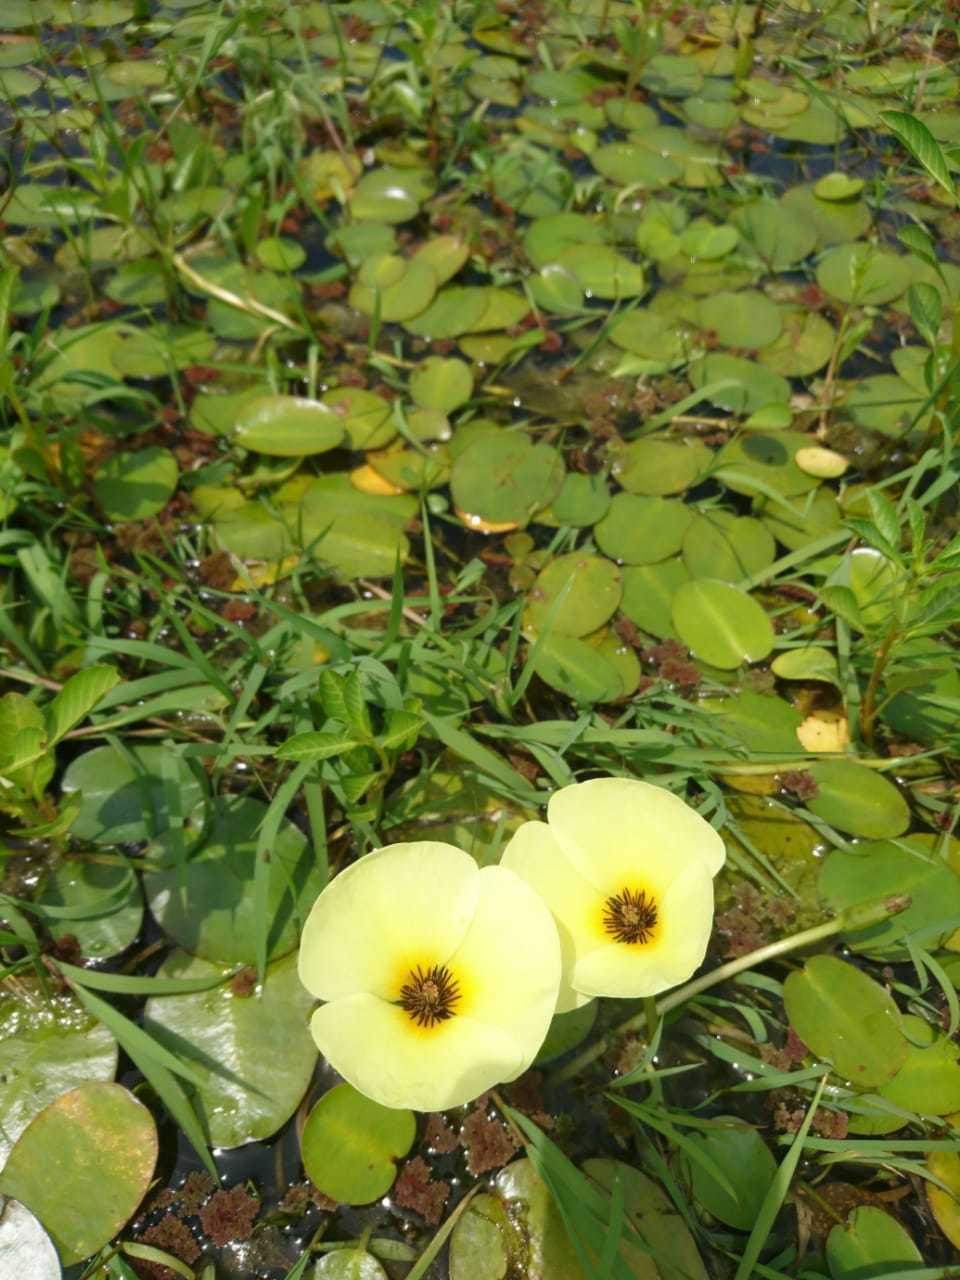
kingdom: Plantae
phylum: Tracheophyta
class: Liliopsida
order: Alismatales
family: Alismataceae
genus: Hydrocleys
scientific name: Hydrocleys nymphoides
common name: Water-poppy
